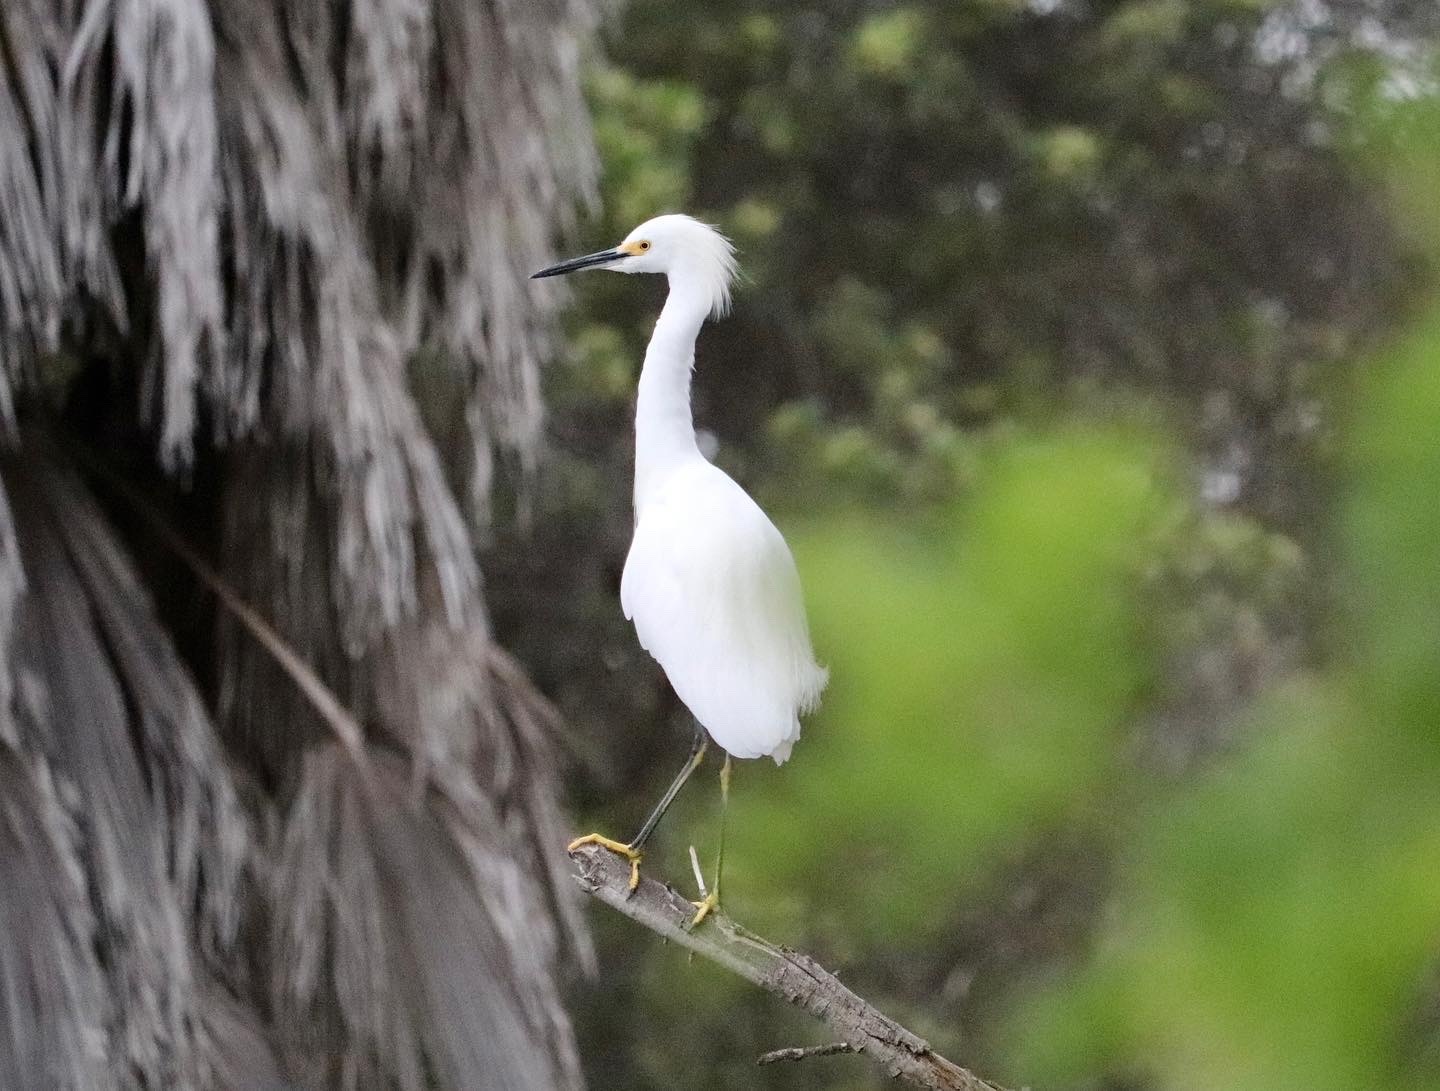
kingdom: Animalia
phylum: Chordata
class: Aves
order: Pelecaniformes
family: Ardeidae
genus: Egretta
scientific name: Egretta thula
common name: Snowy egret
